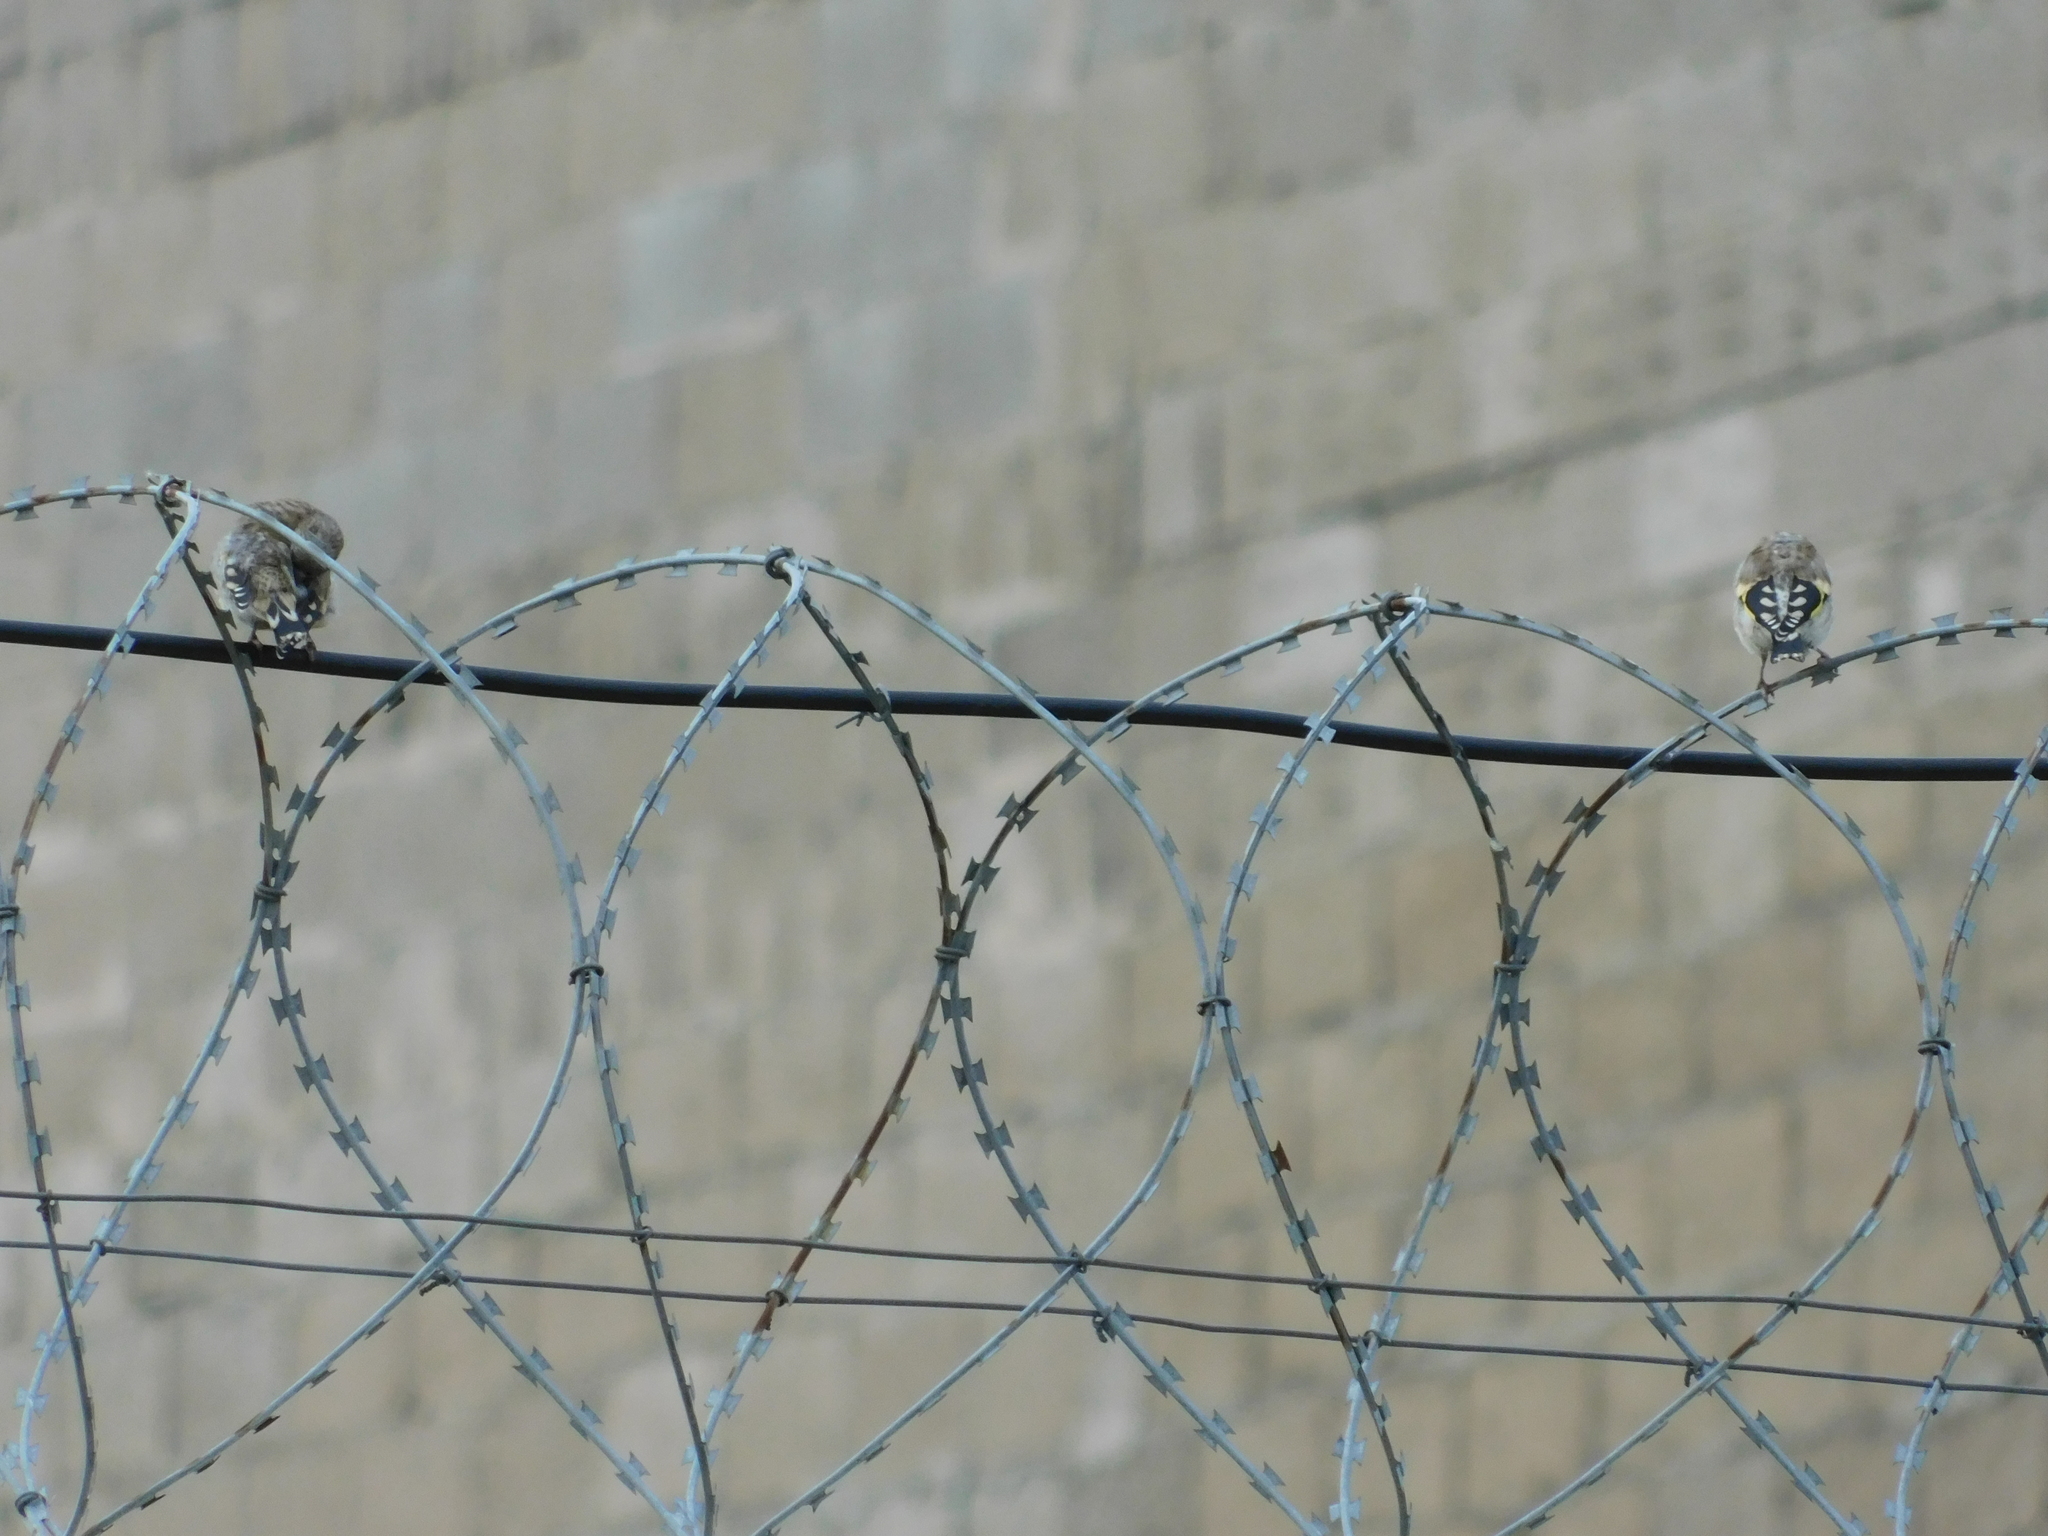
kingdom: Animalia
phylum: Chordata
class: Aves
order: Passeriformes
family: Fringillidae
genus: Carduelis
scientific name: Carduelis carduelis
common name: European goldfinch
